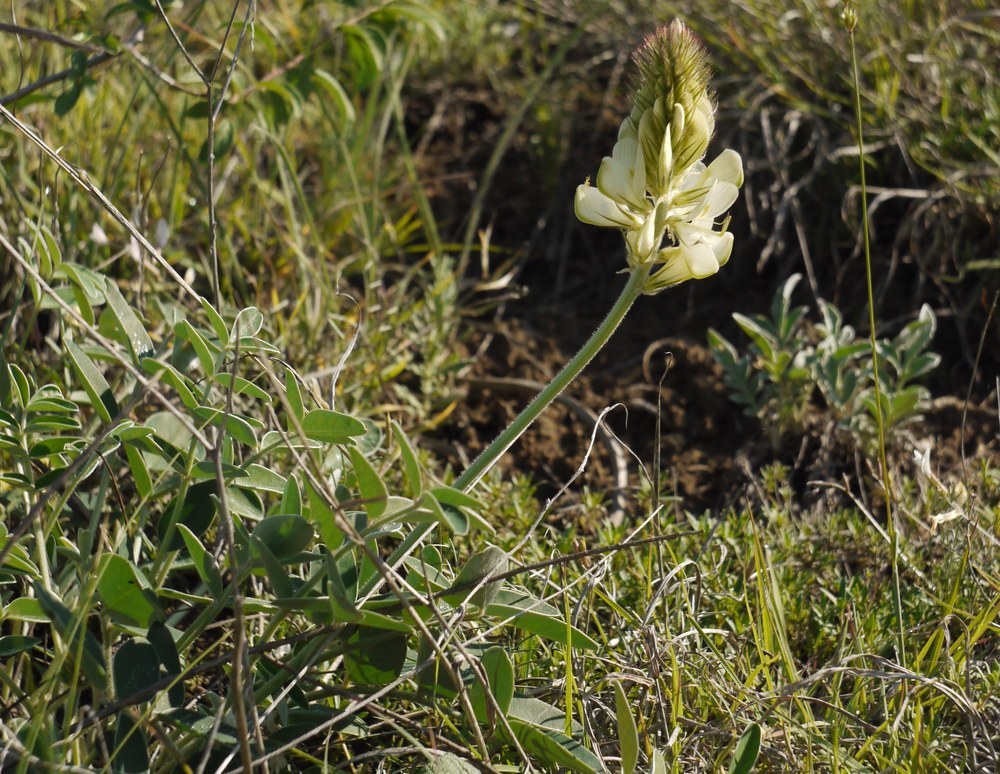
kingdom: Plantae
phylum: Tracheophyta
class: Magnoliopsida
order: Fabales
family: Fabaceae
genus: Hedysarum
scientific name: Hedysarum grandiflorum
